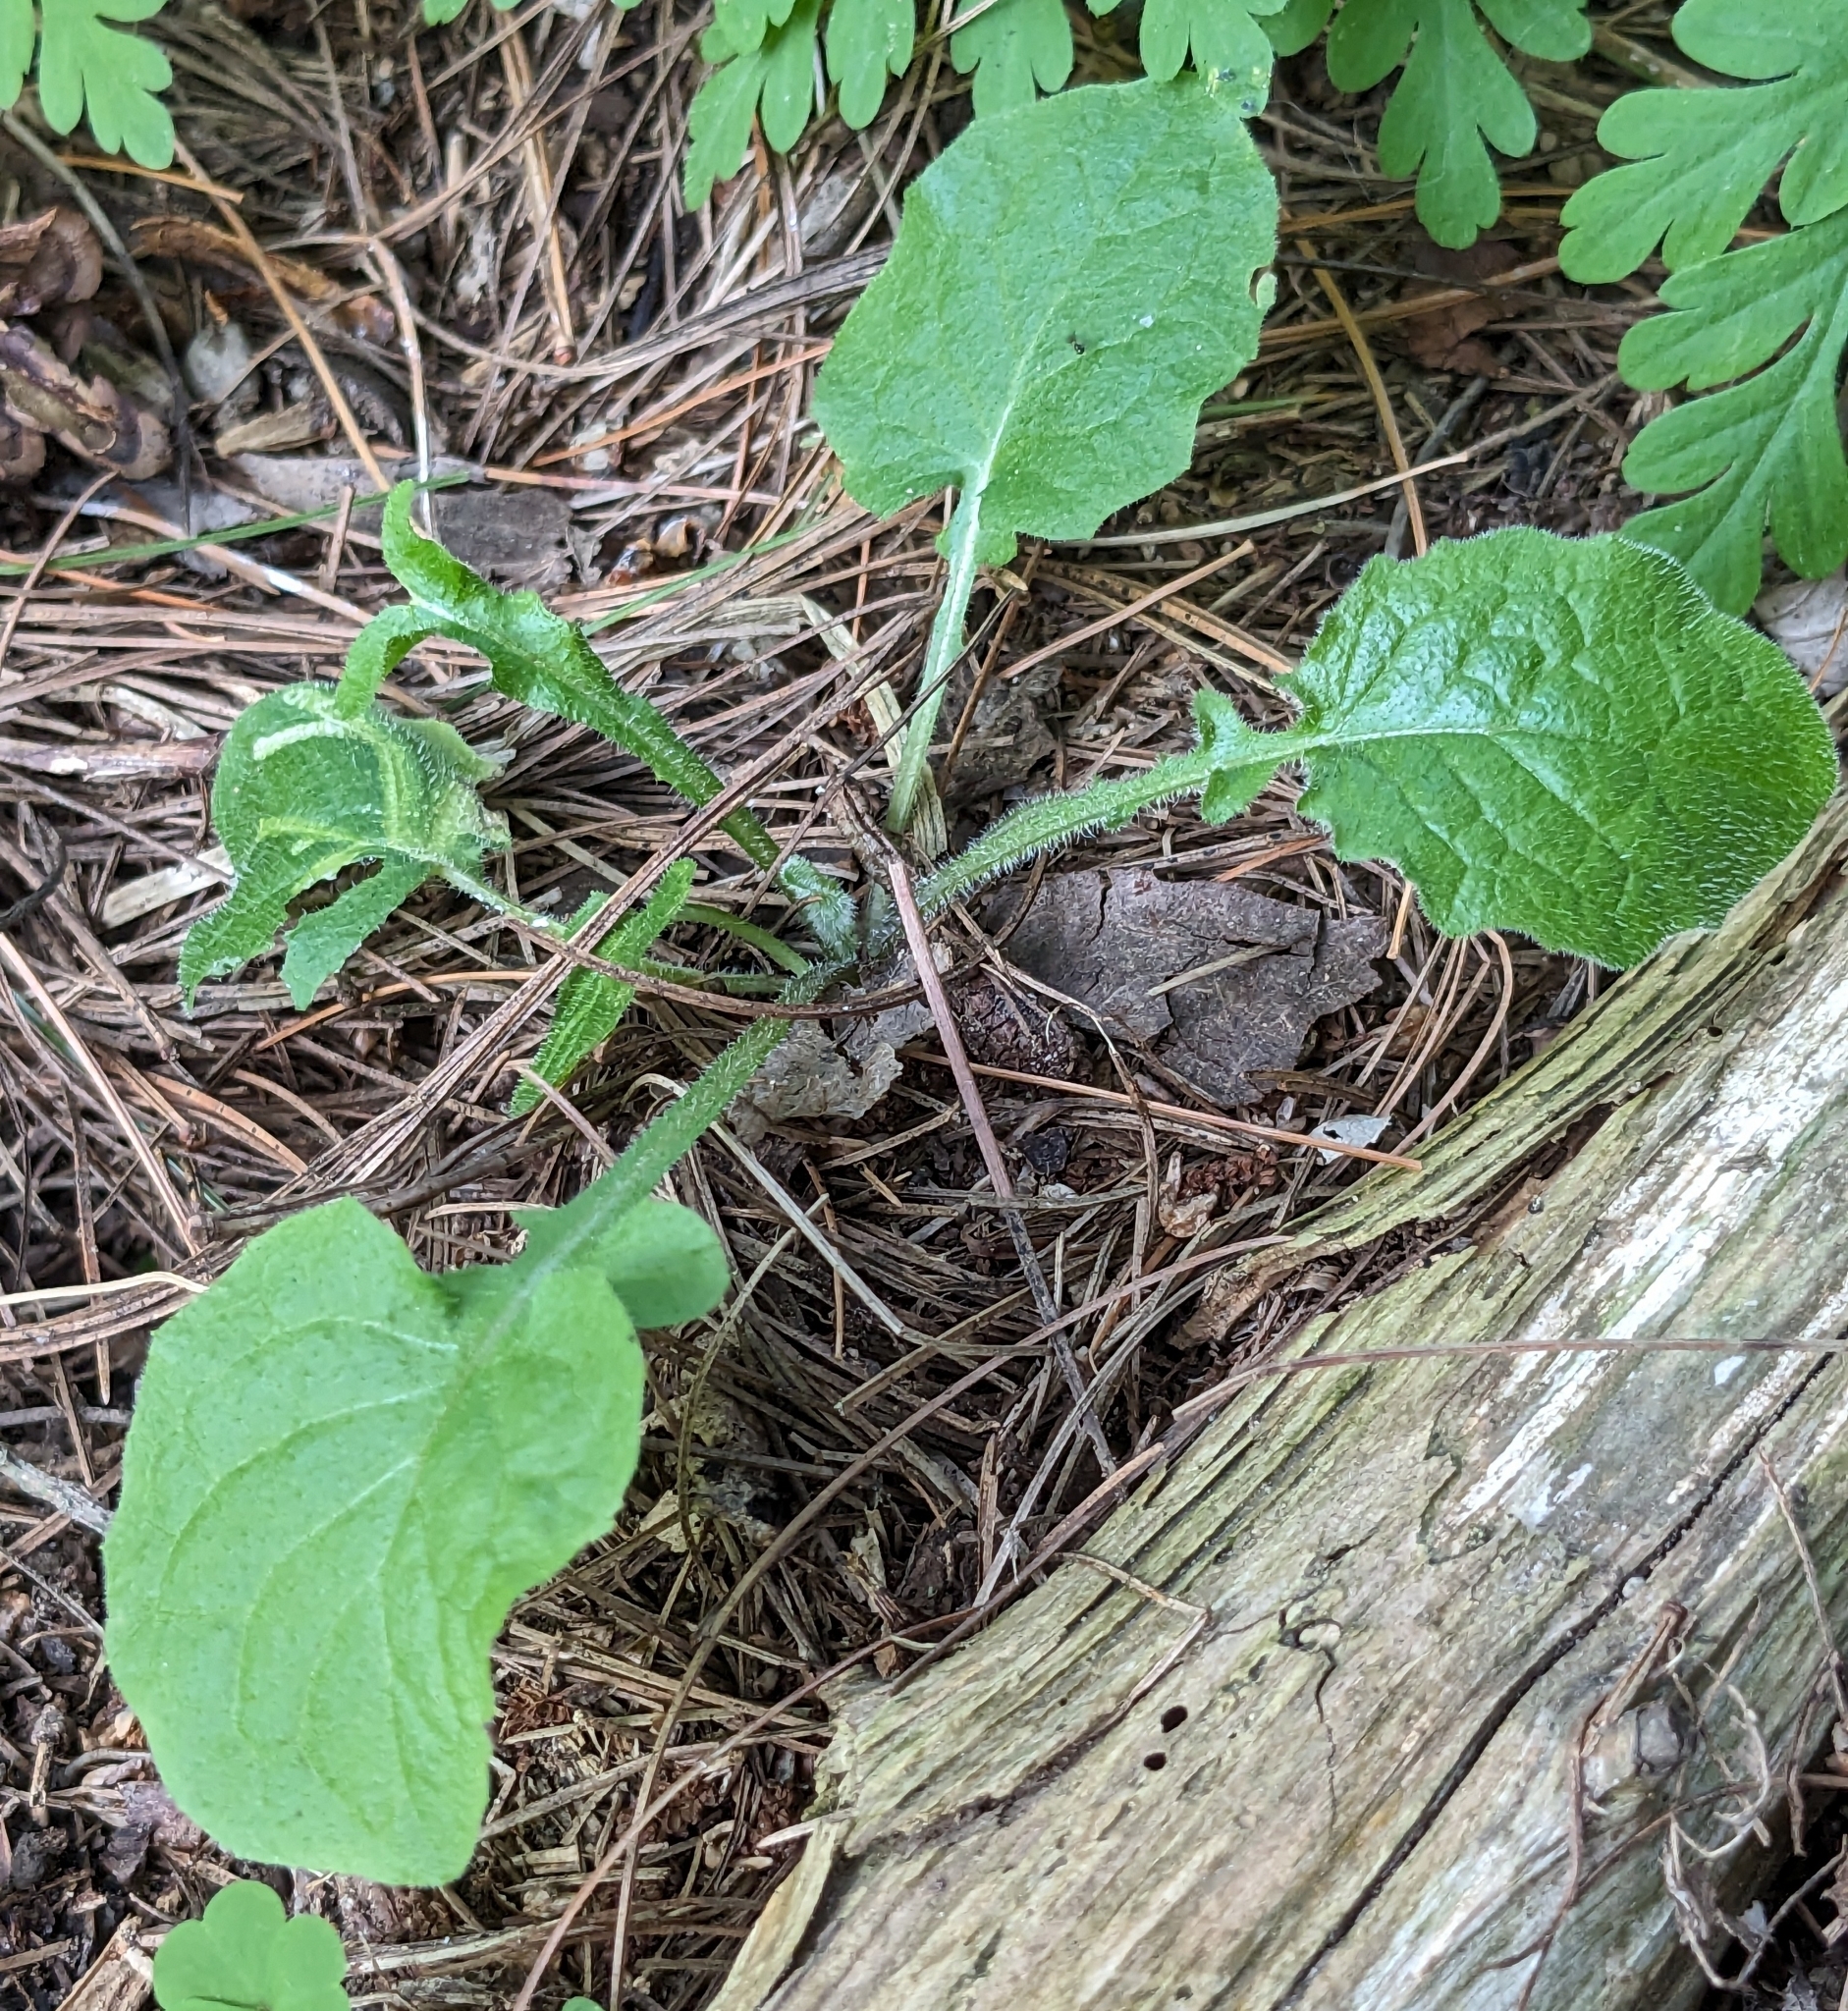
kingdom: Plantae
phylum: Tracheophyta
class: Magnoliopsida
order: Asterales
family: Asteraceae
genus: Lapsana
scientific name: Lapsana communis
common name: Nipplewort
